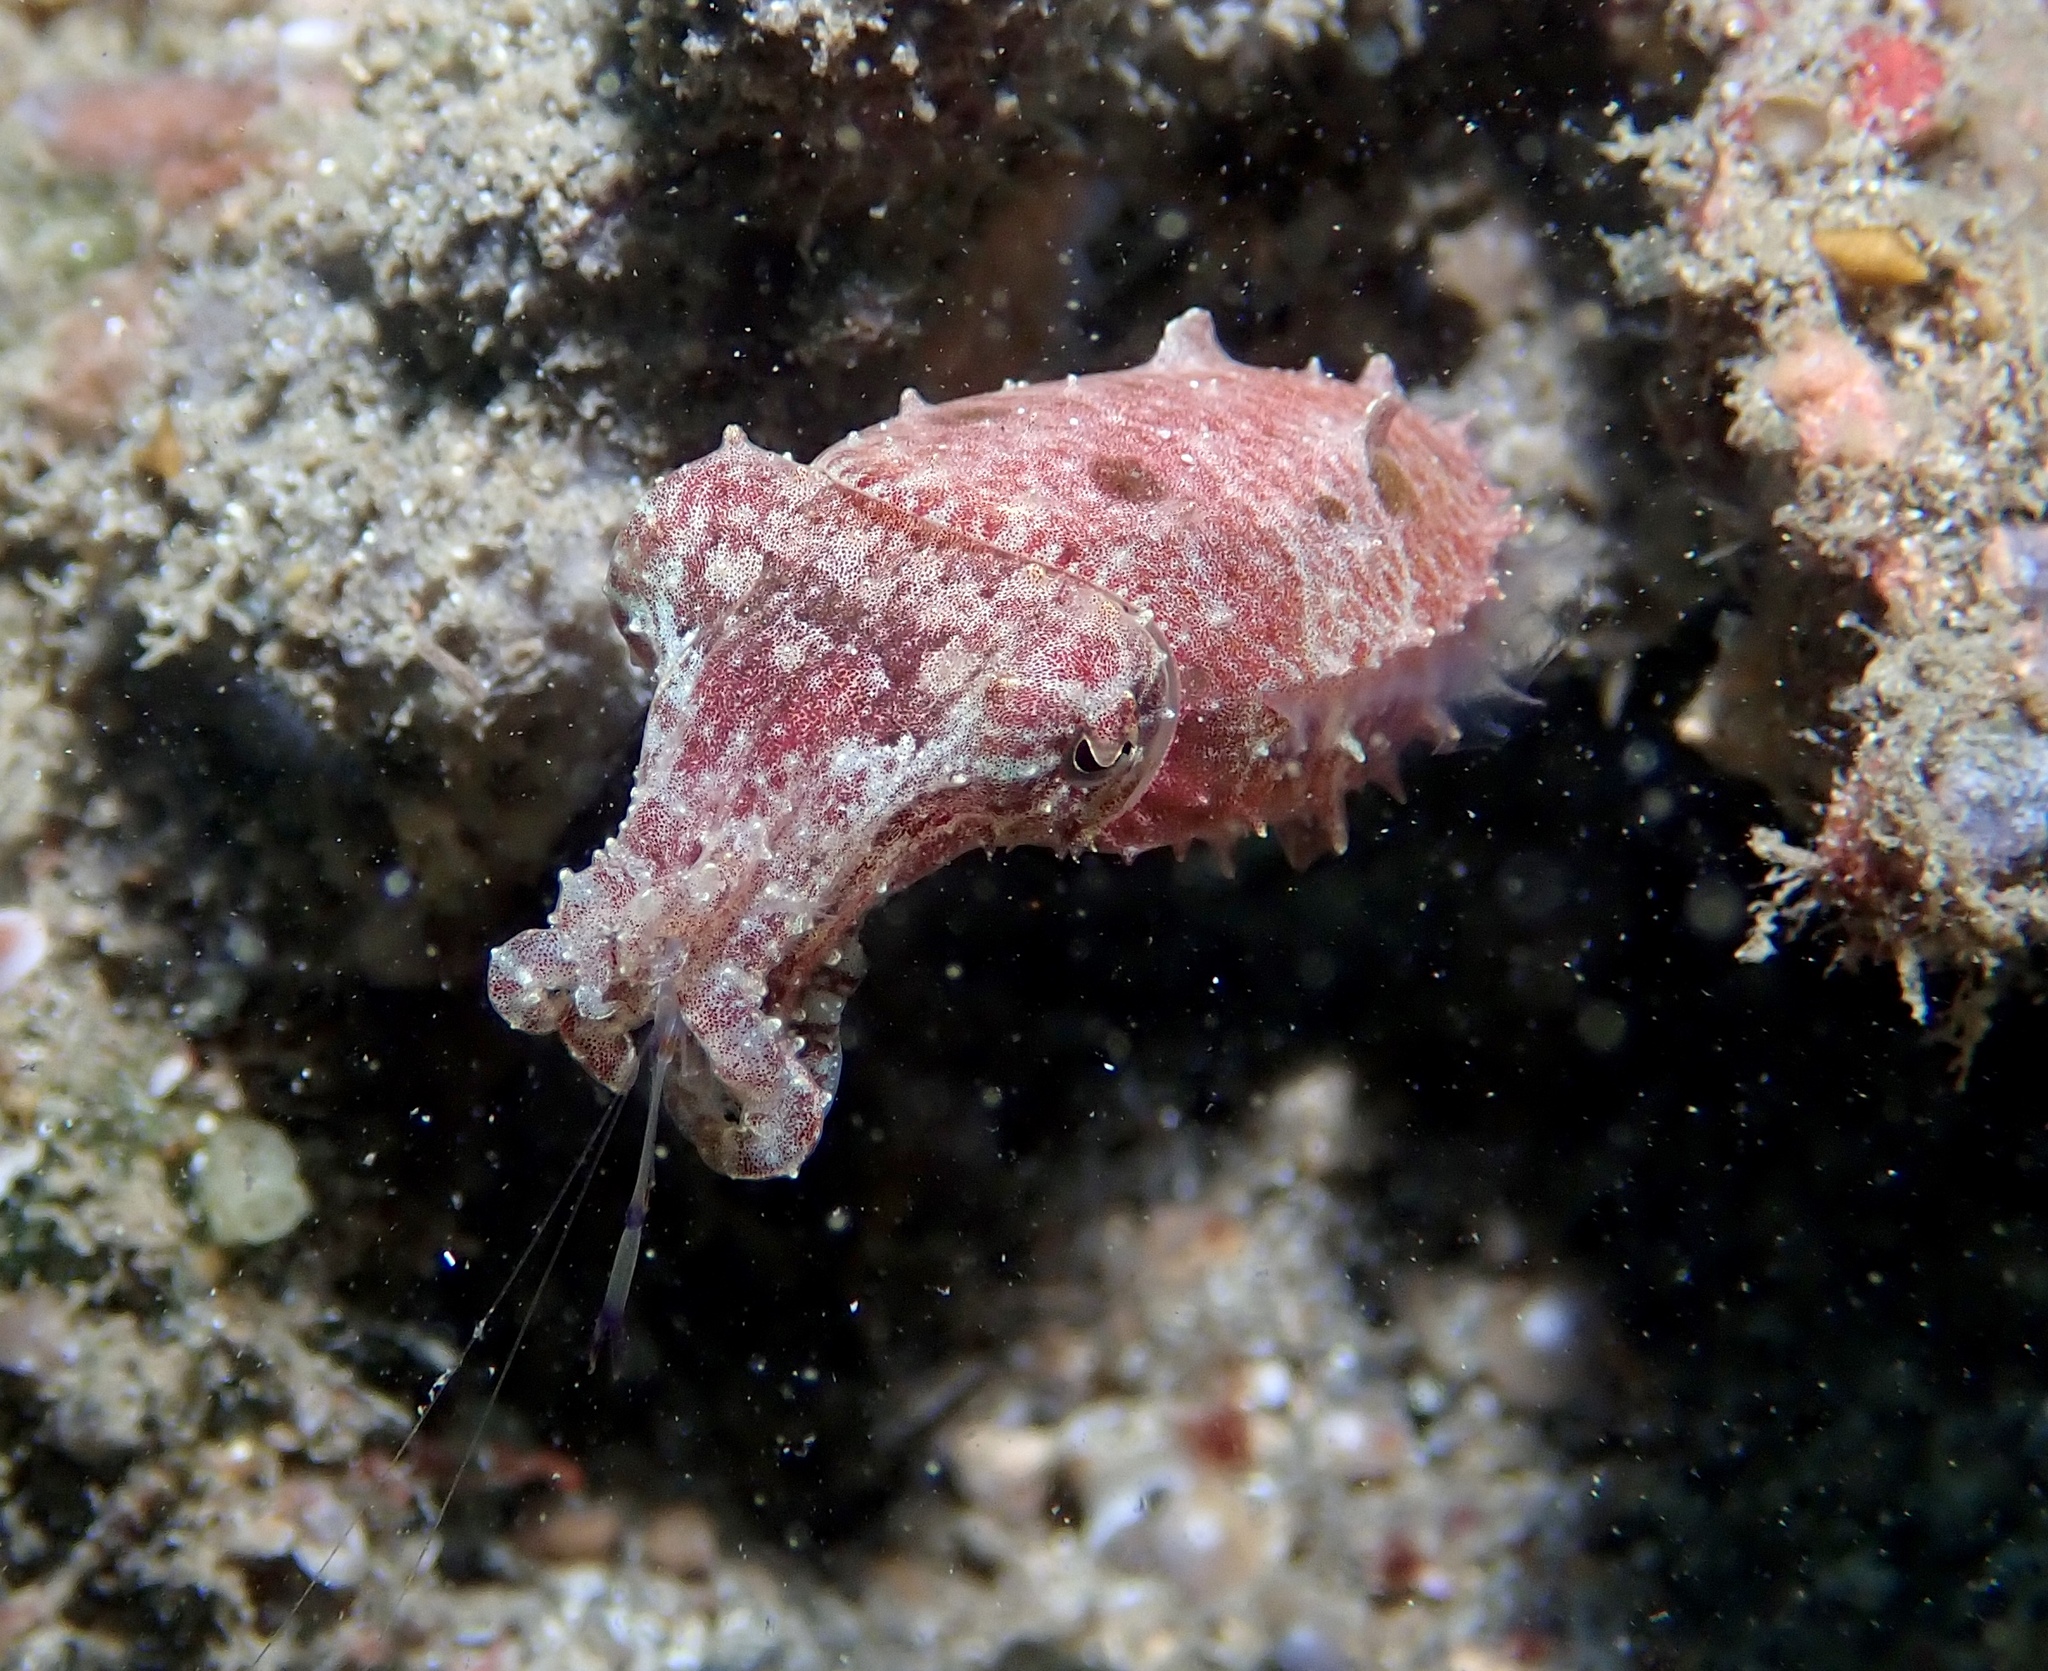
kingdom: Animalia
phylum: Mollusca
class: Cephalopoda
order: Sepiida
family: Sepiidae
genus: Ascarosepion
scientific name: Ascarosepion bandense
